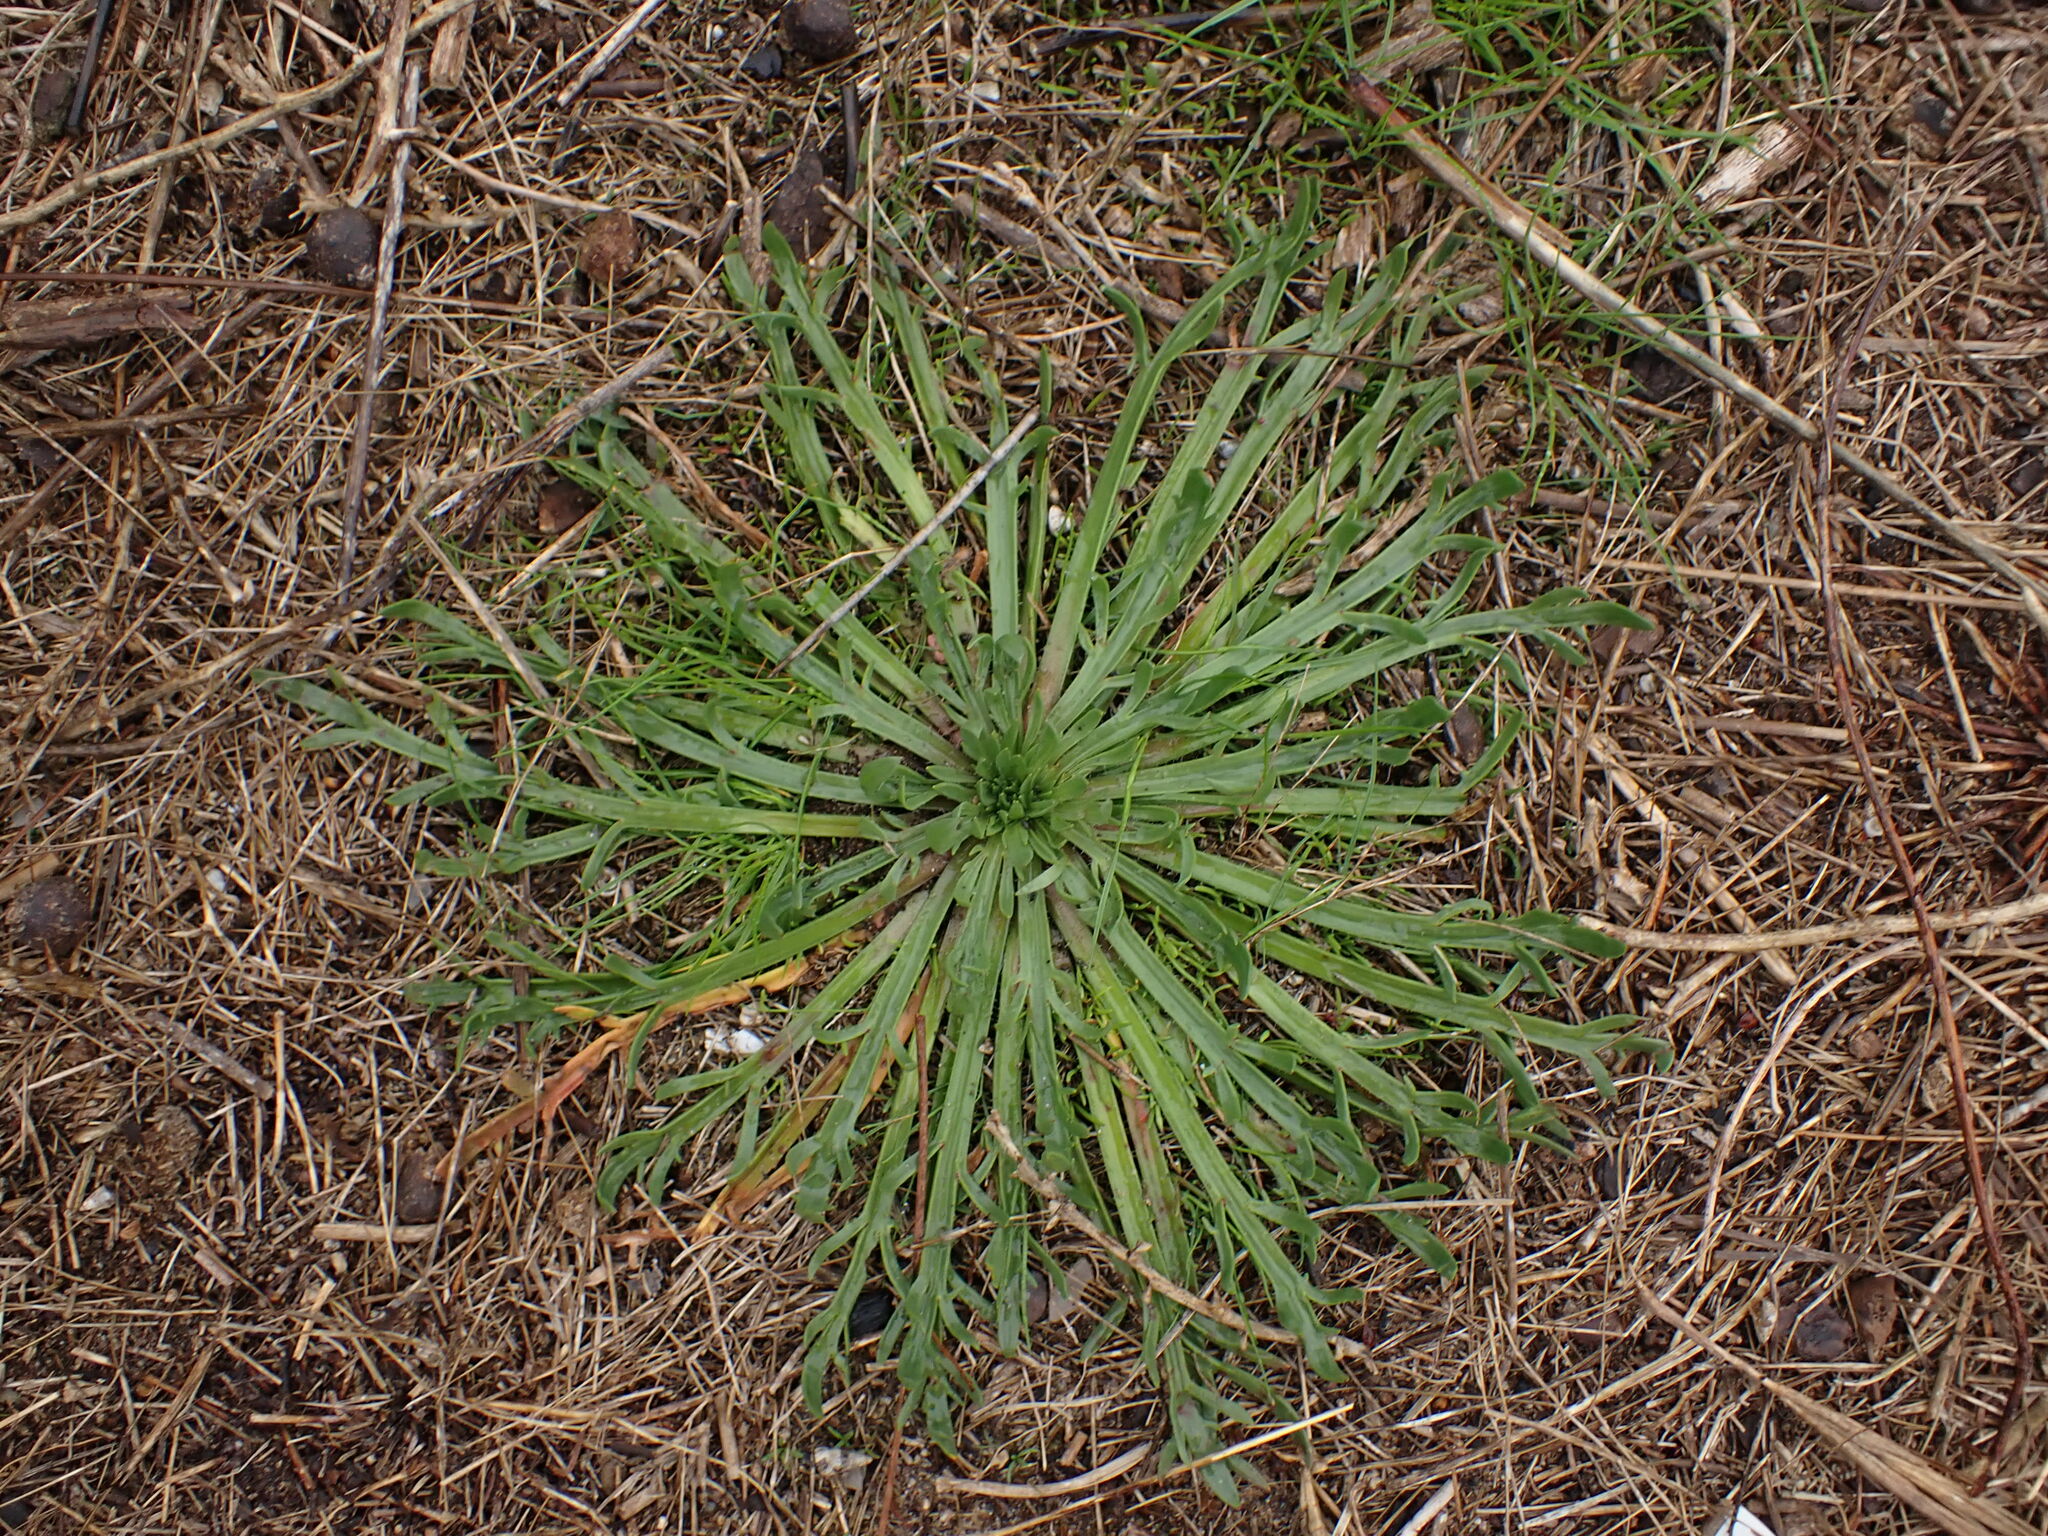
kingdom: Plantae
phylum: Tracheophyta
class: Magnoliopsida
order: Lamiales
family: Plantaginaceae
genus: Plantago
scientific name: Plantago coronopus
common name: Buck's-horn plantain
